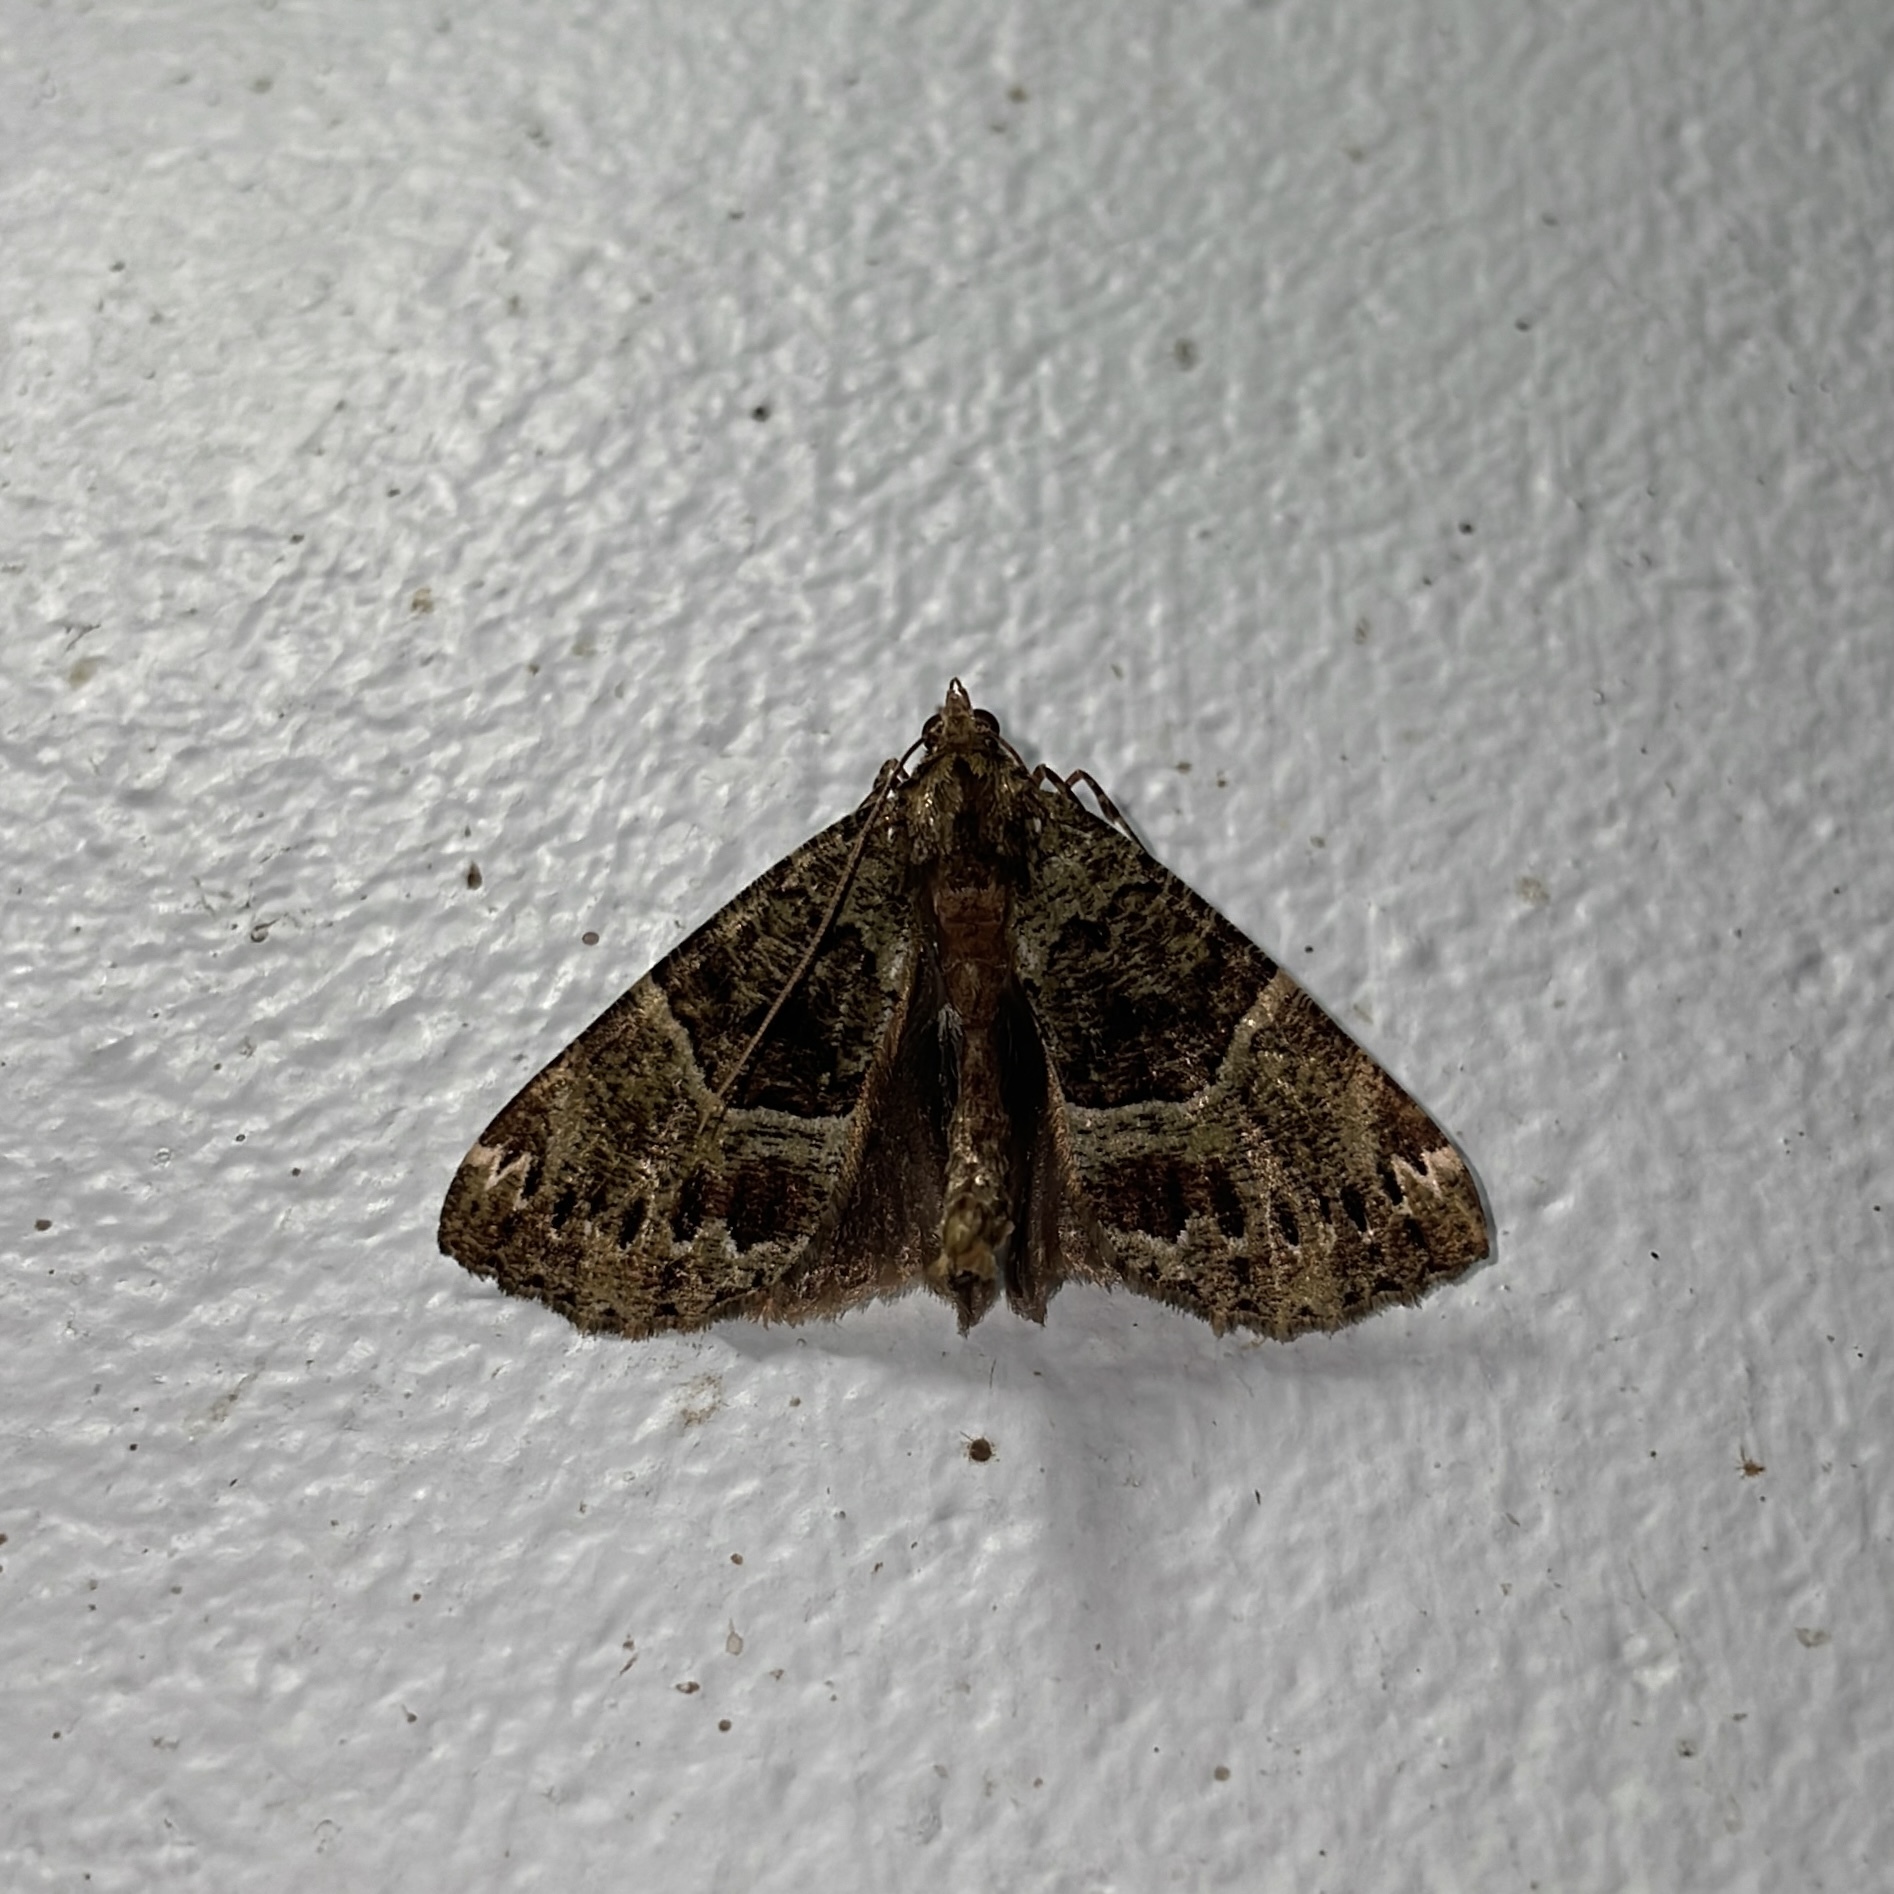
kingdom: Animalia
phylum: Arthropoda
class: Insecta
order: Lepidoptera
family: Geometridae
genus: Ischnopteris
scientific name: Ischnopteris bryifera
